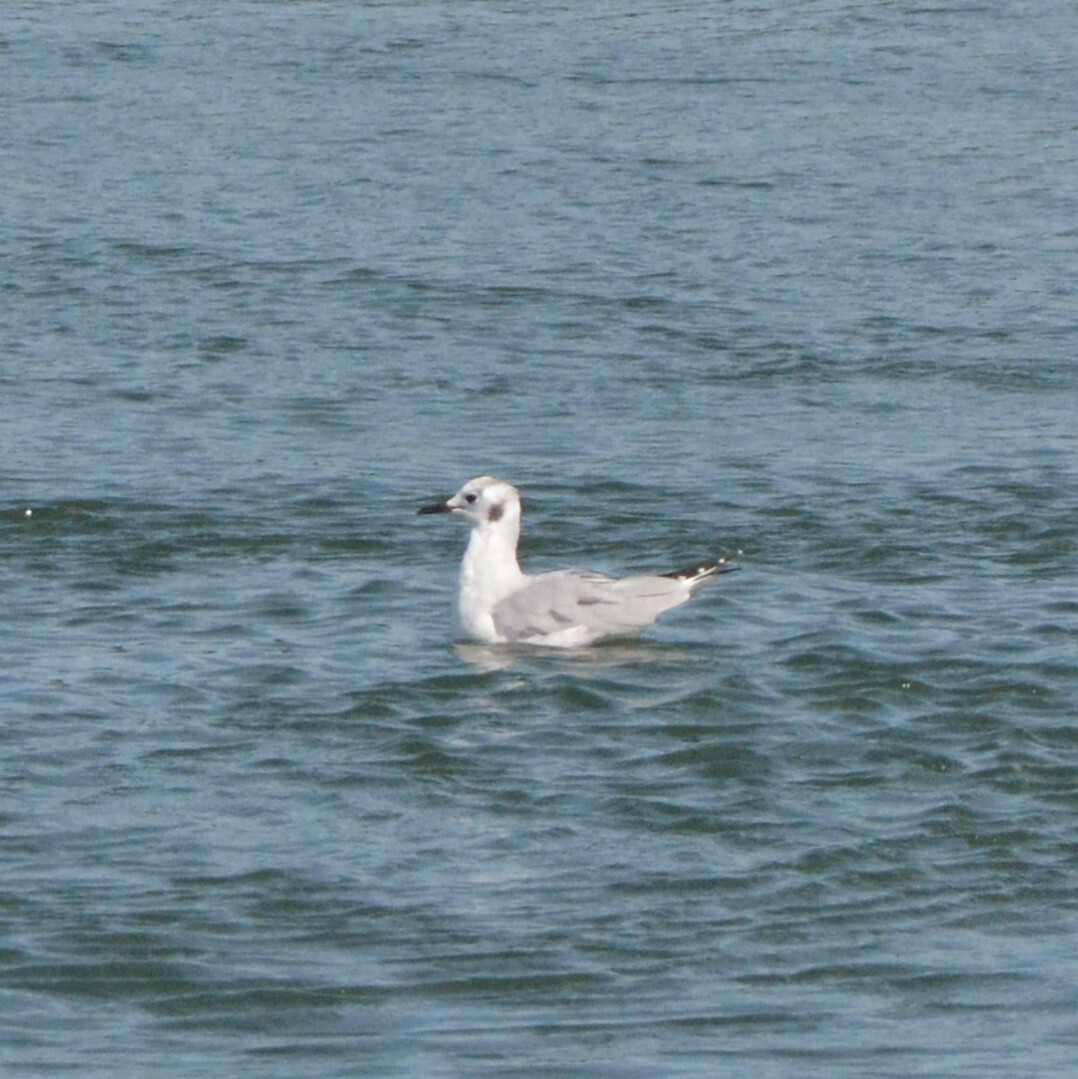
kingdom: Animalia
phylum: Chordata
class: Aves
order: Charadriiformes
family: Laridae
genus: Chroicocephalus
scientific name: Chroicocephalus philadelphia
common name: Bonaparte's gull
